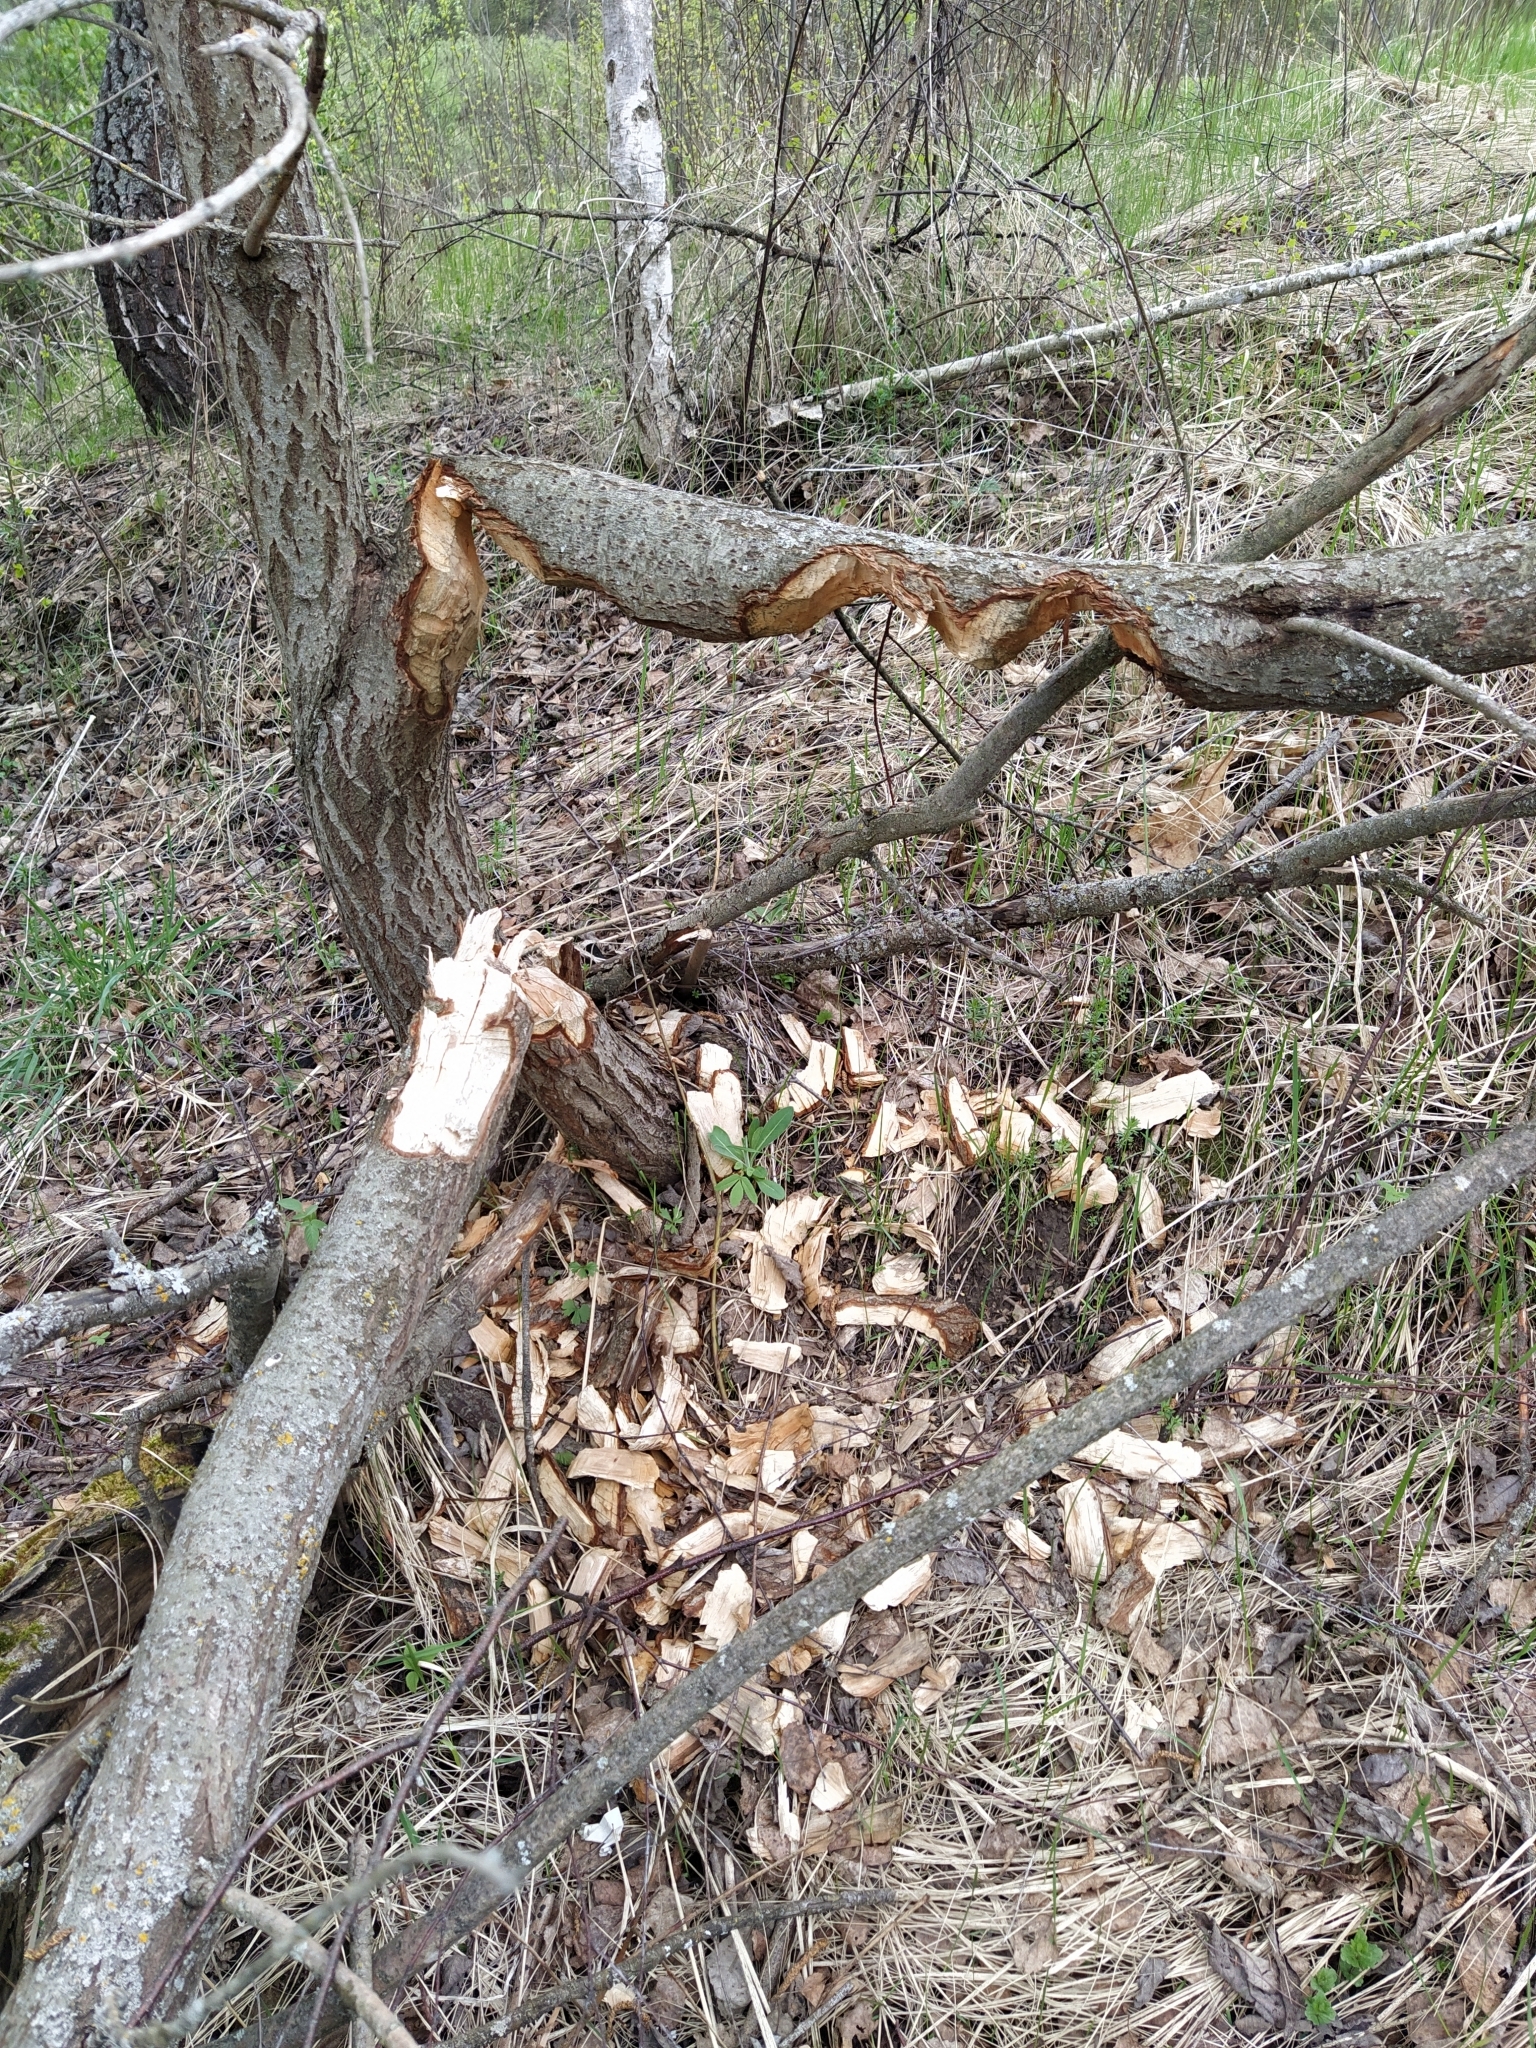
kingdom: Animalia
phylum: Chordata
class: Mammalia
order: Rodentia
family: Castoridae
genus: Castor
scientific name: Castor fiber
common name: Eurasian beaver
